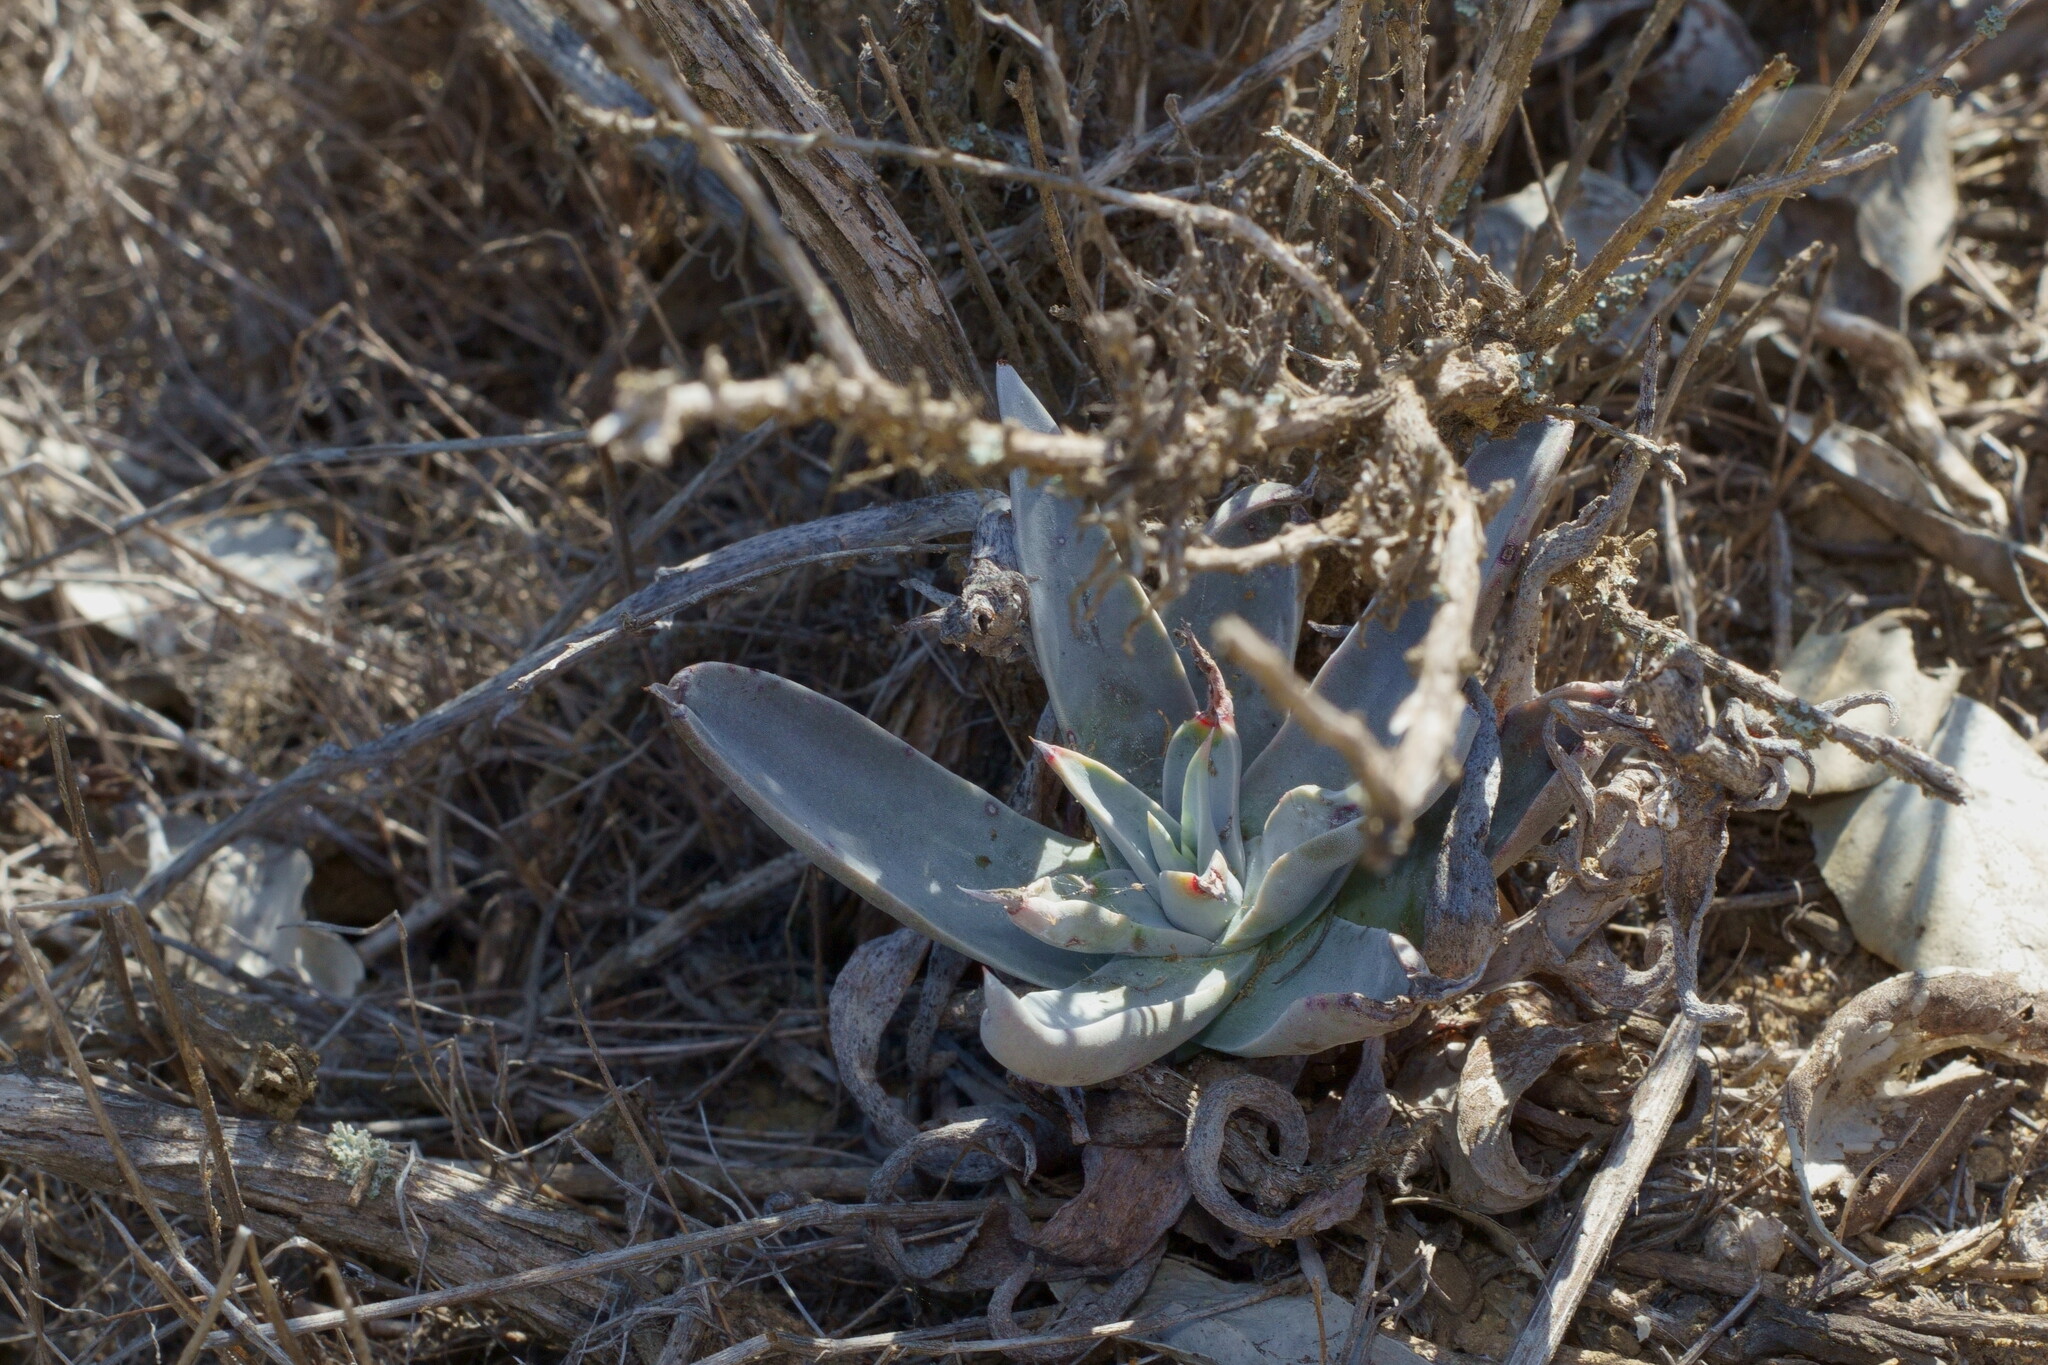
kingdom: Plantae
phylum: Tracheophyta
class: Magnoliopsida
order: Saxifragales
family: Crassulaceae
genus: Dudleya
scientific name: Dudleya lanceolata
